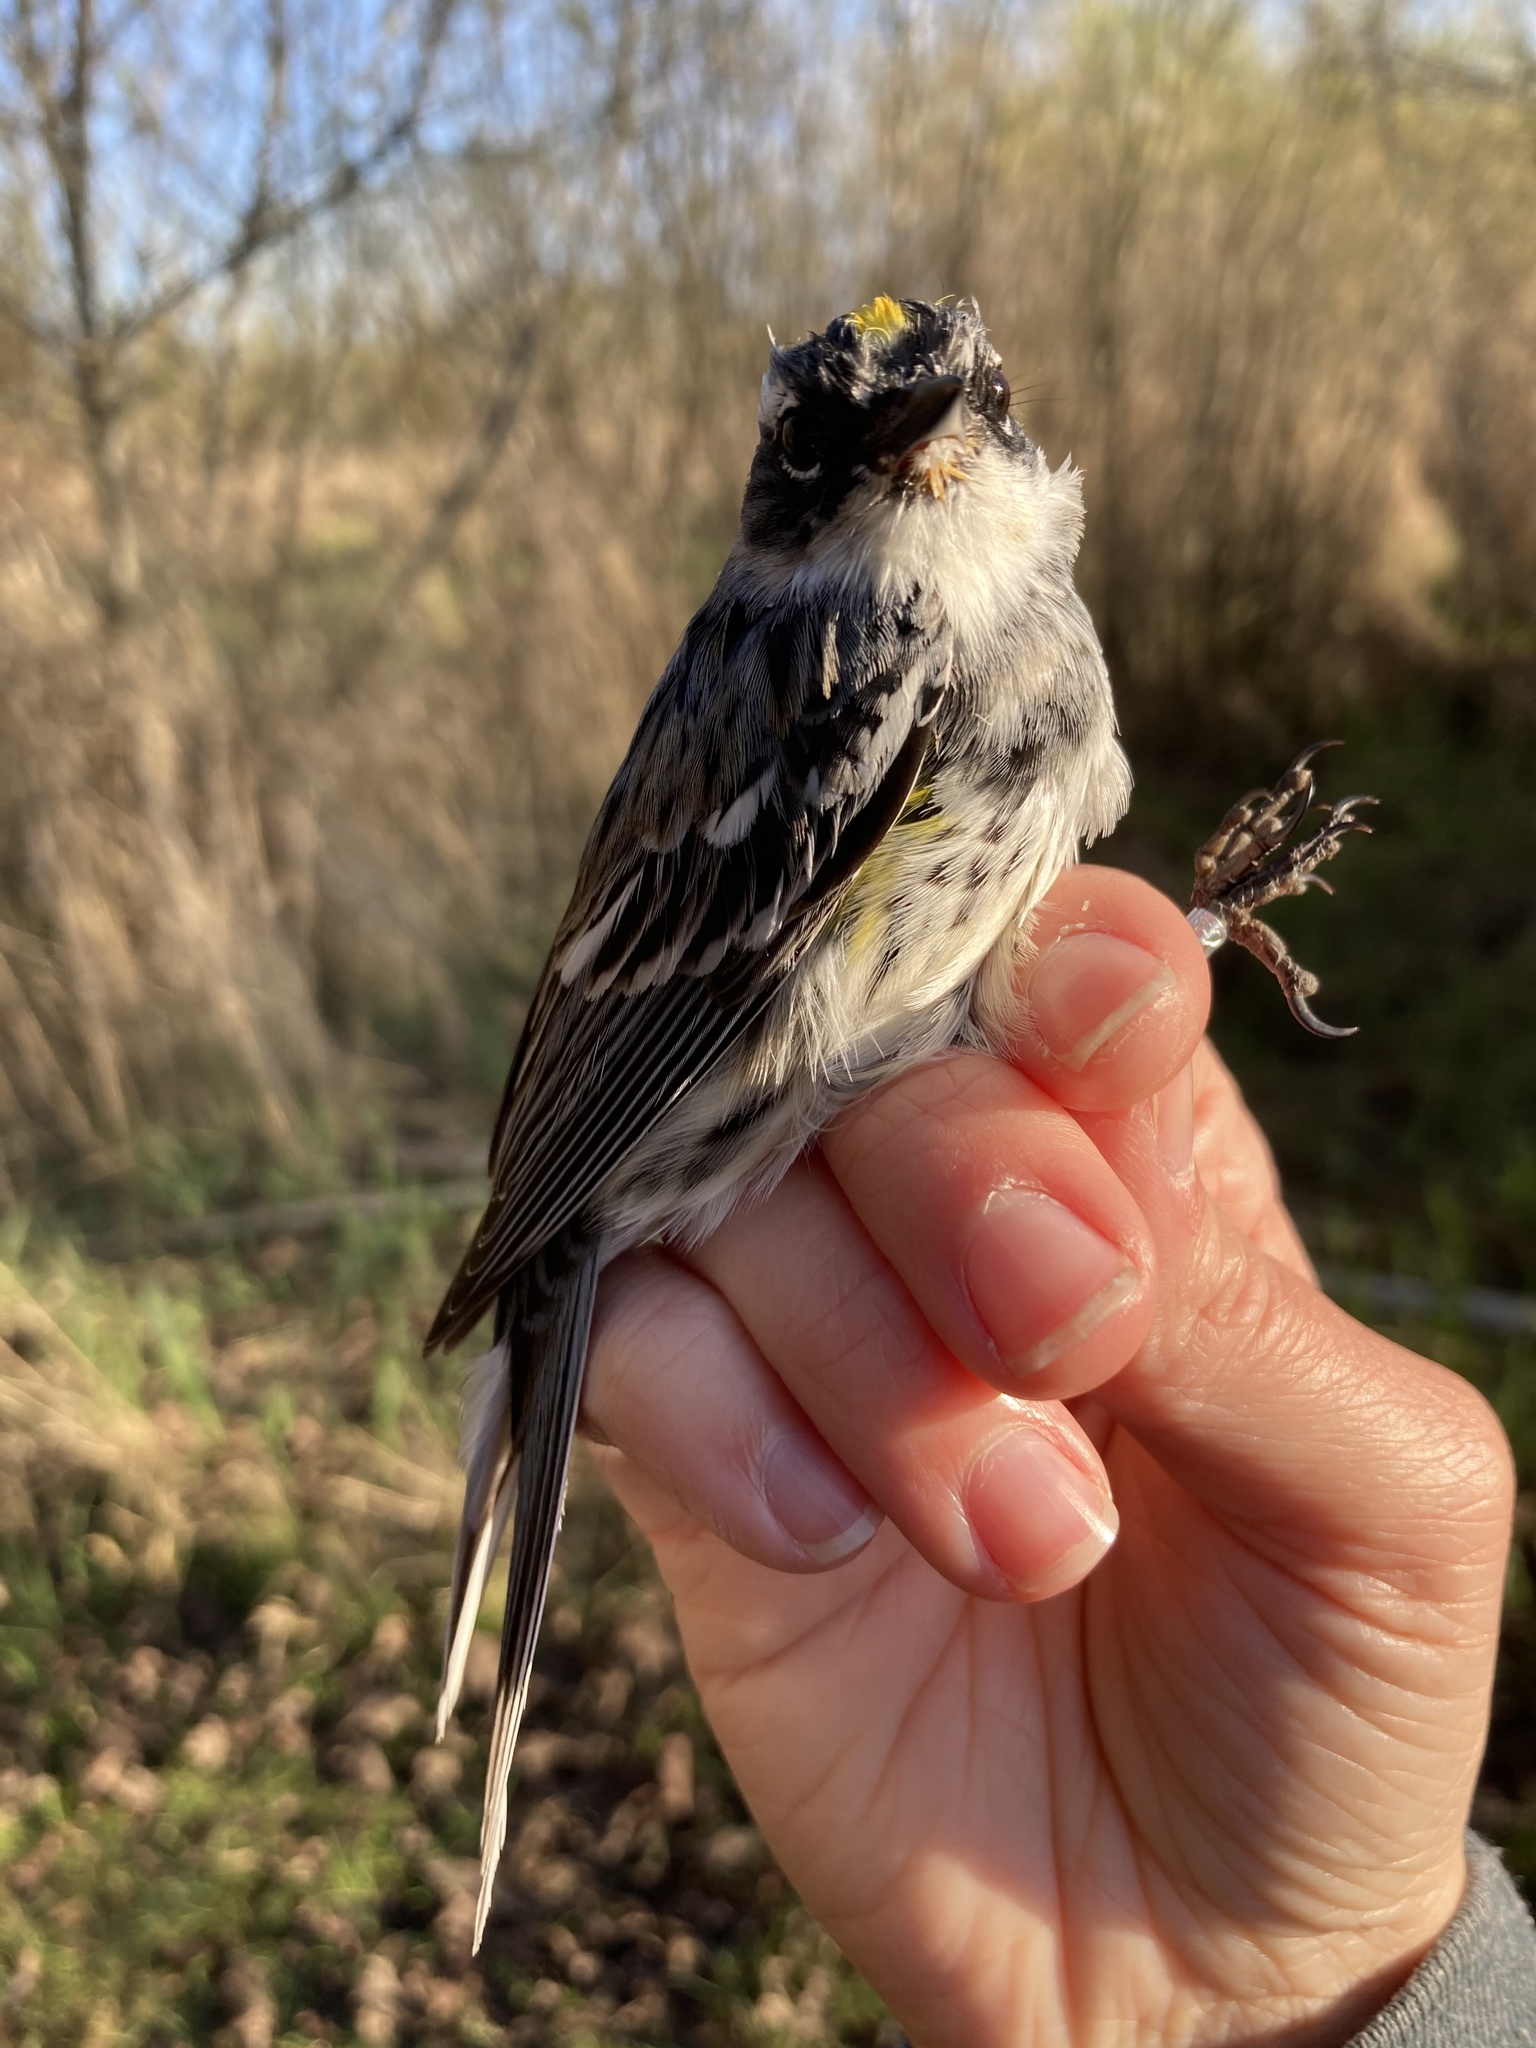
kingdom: Animalia
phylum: Chordata
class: Aves
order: Passeriformes
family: Parulidae
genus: Setophaga
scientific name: Setophaga coronata
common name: Myrtle warbler
